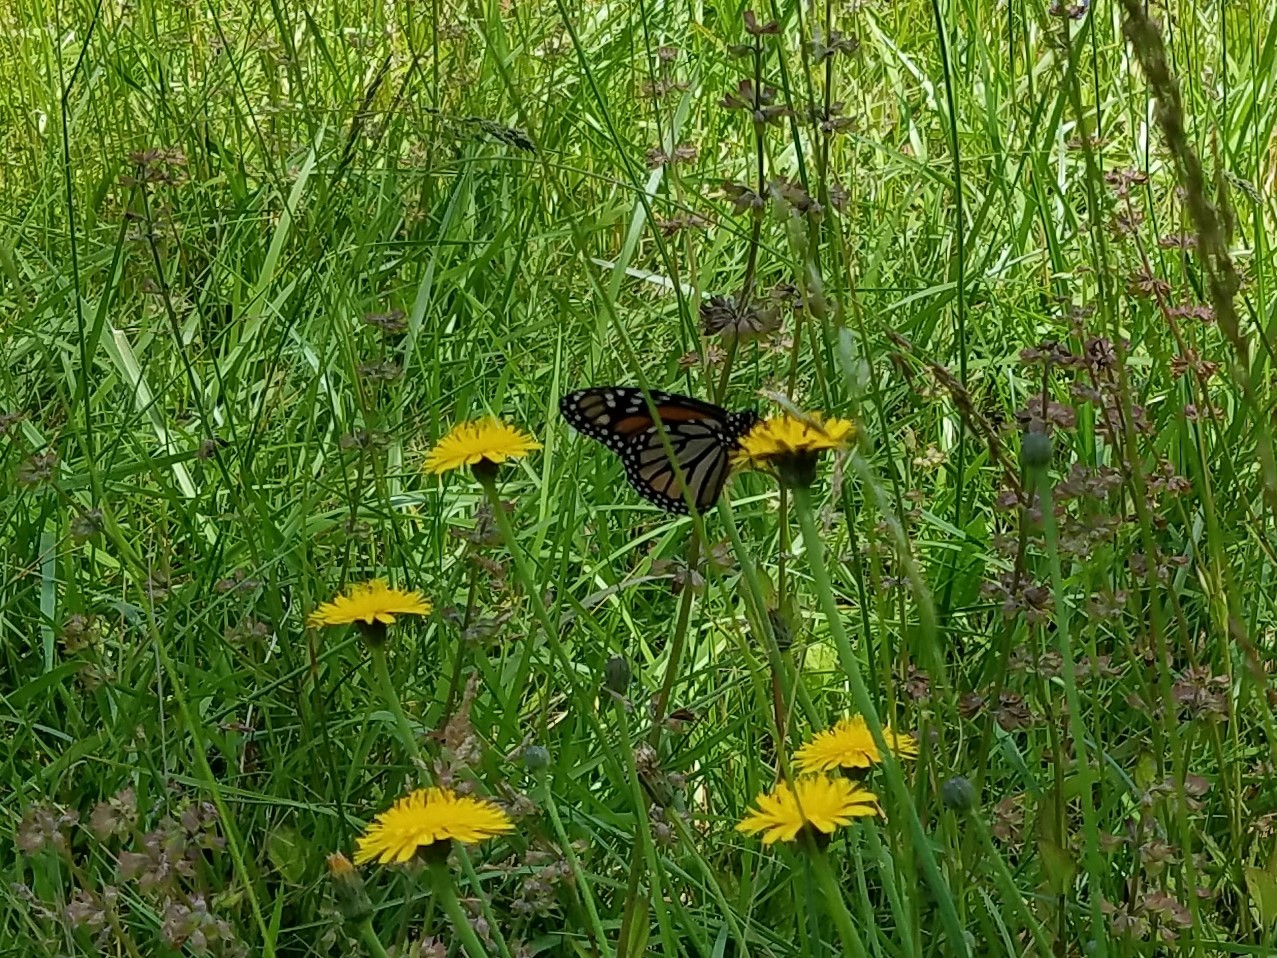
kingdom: Animalia
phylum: Arthropoda
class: Insecta
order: Lepidoptera
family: Nymphalidae
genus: Danaus
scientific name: Danaus plexippus
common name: Monarch
